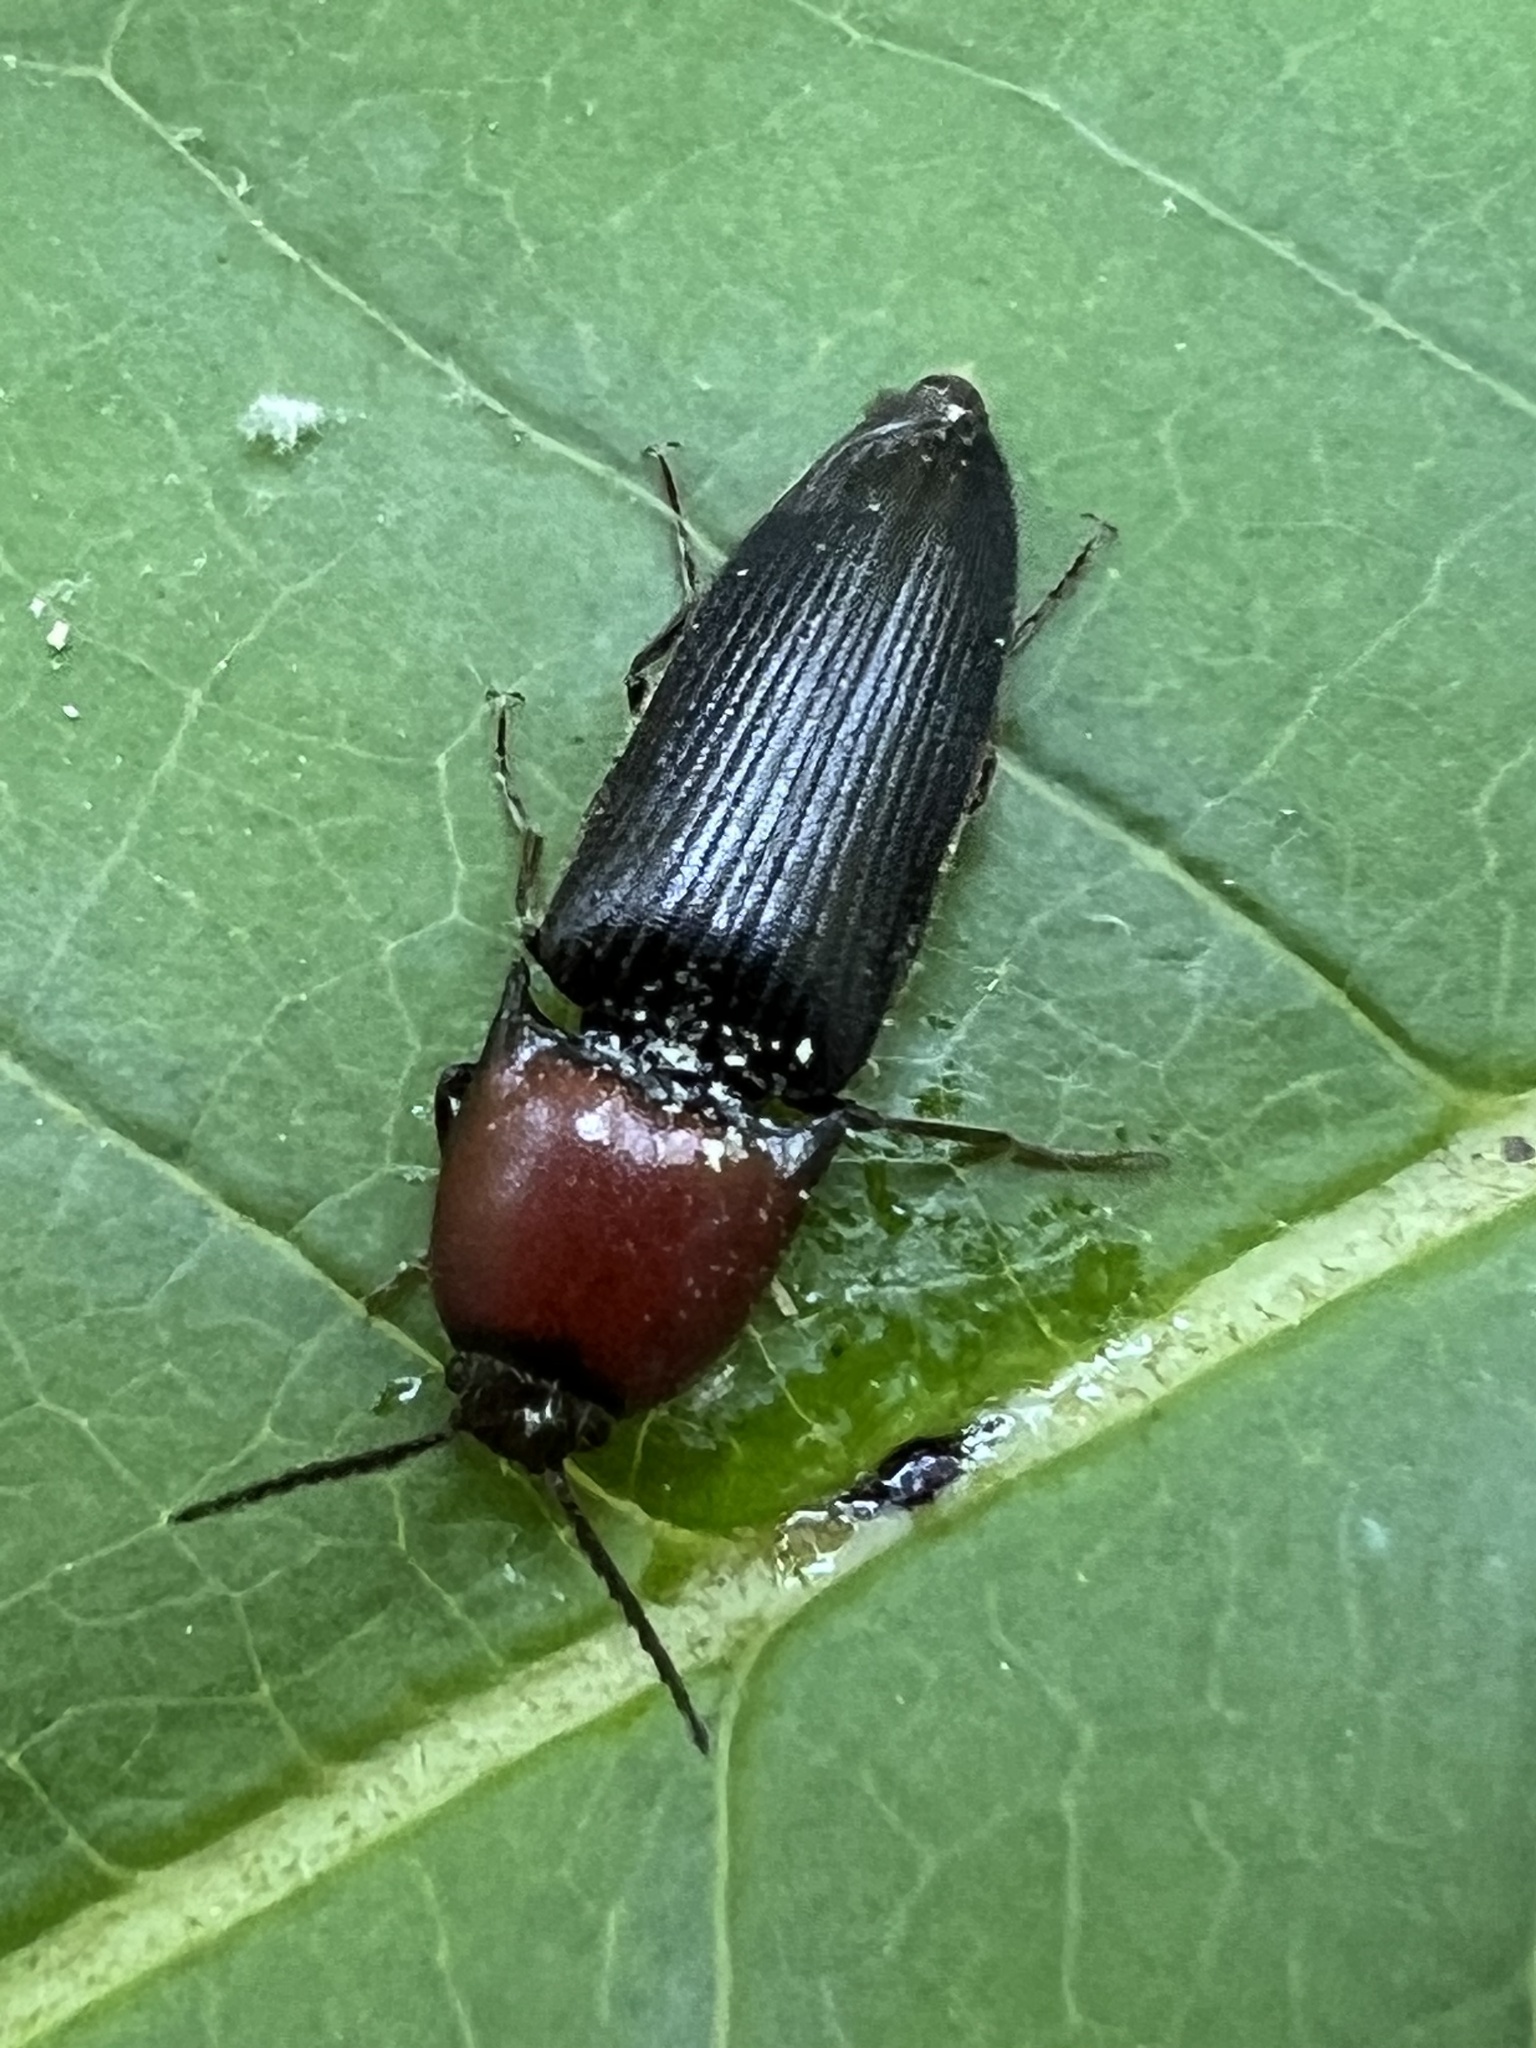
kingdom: Animalia
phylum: Arthropoda
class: Insecta
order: Coleoptera
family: Elateridae
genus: Ampedus
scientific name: Ampedus rubricollis
